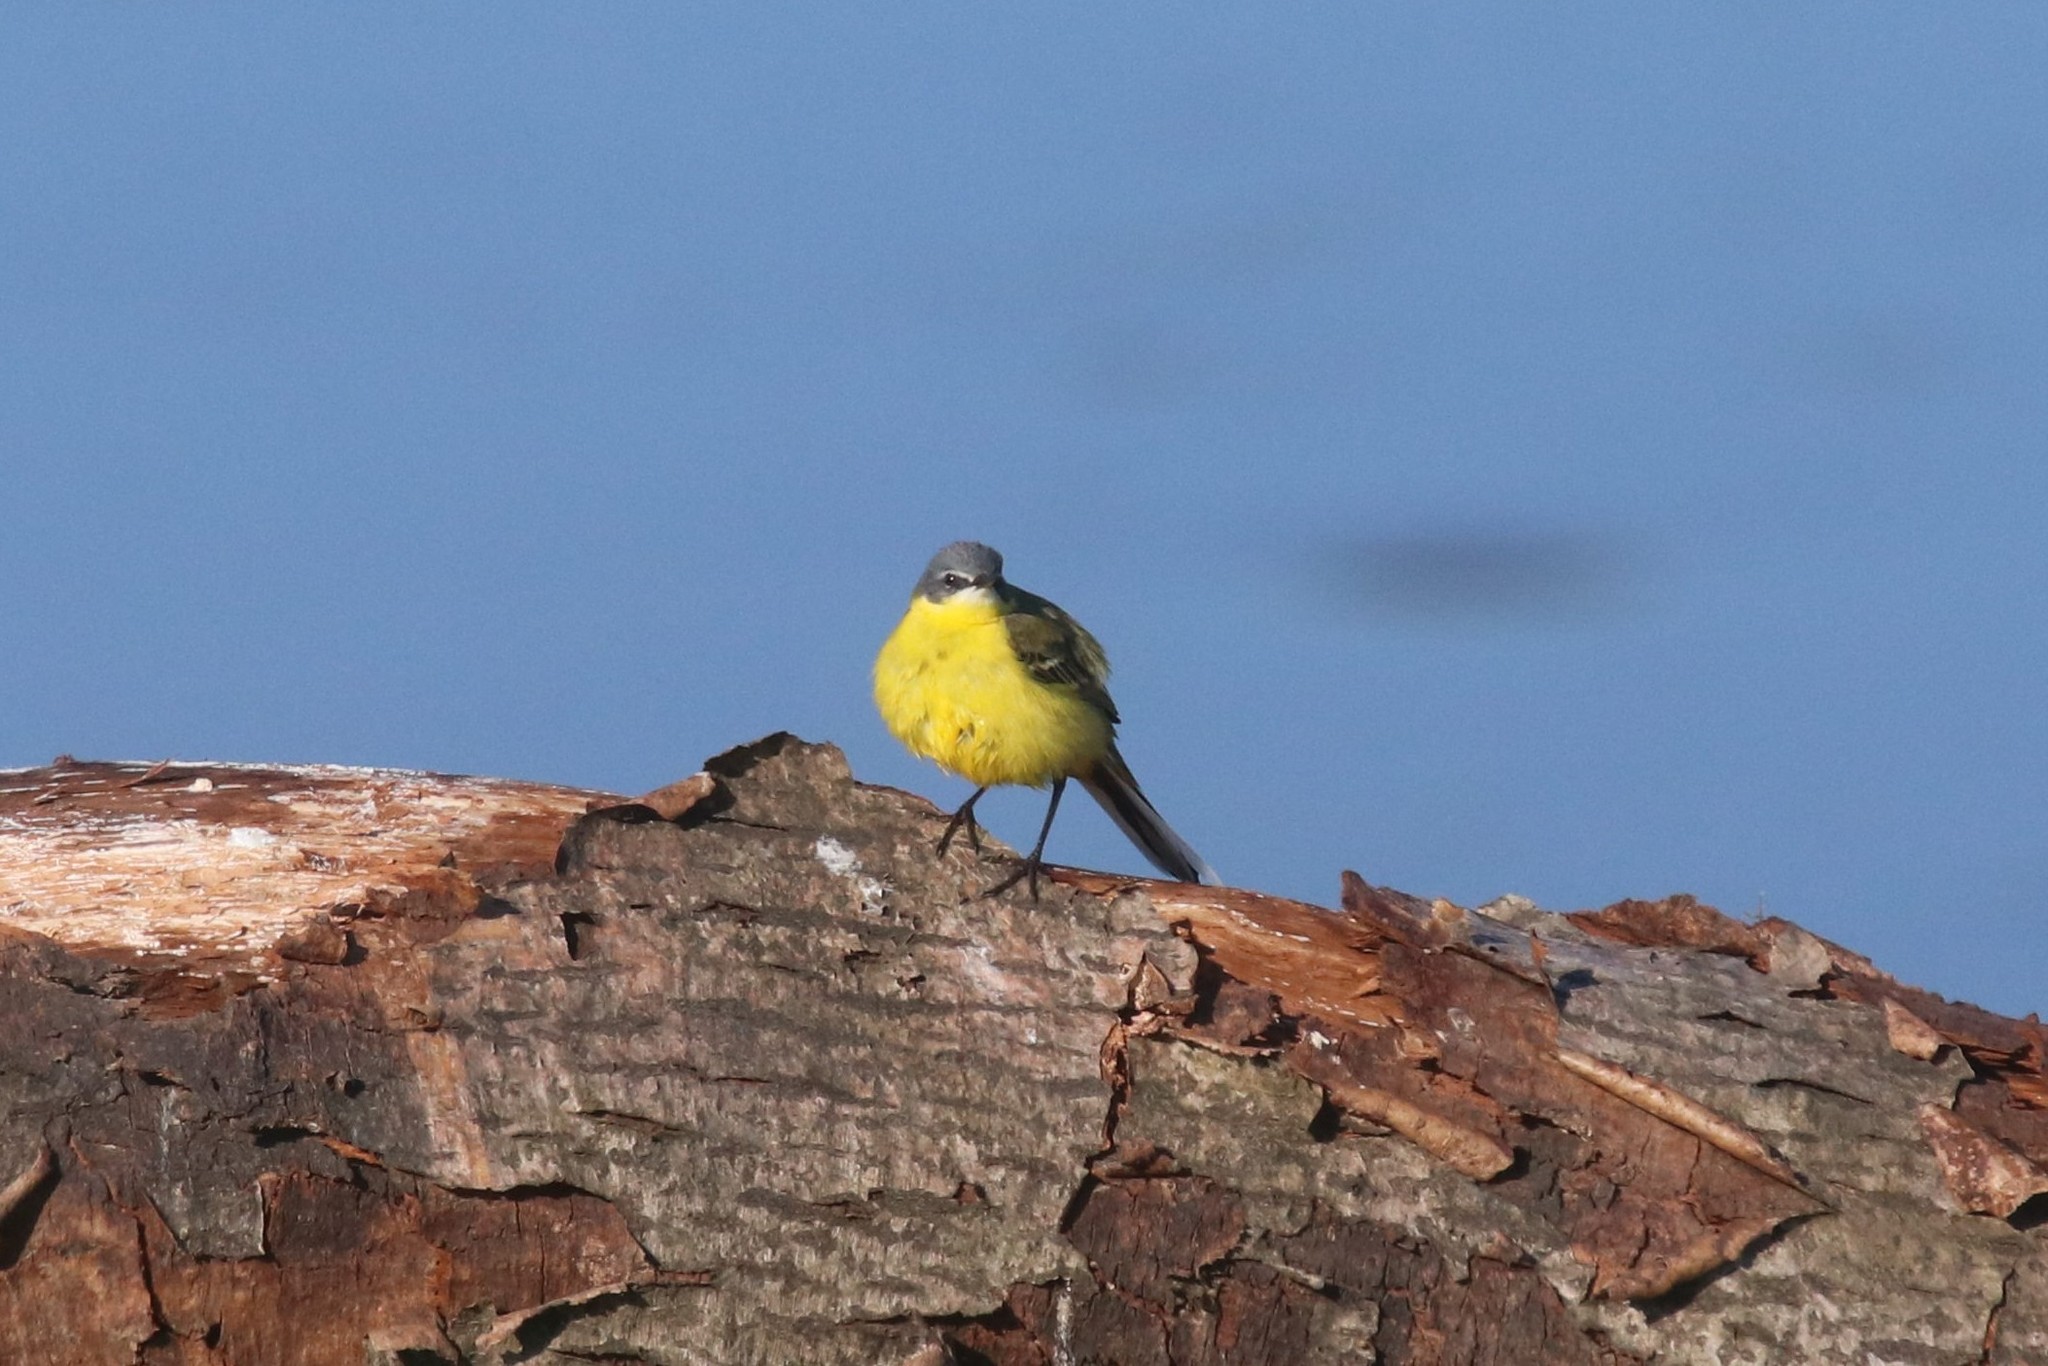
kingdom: Animalia
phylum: Chordata
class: Aves
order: Passeriformes
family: Motacillidae
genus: Motacilla
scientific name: Motacilla flava
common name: Western yellow wagtail
